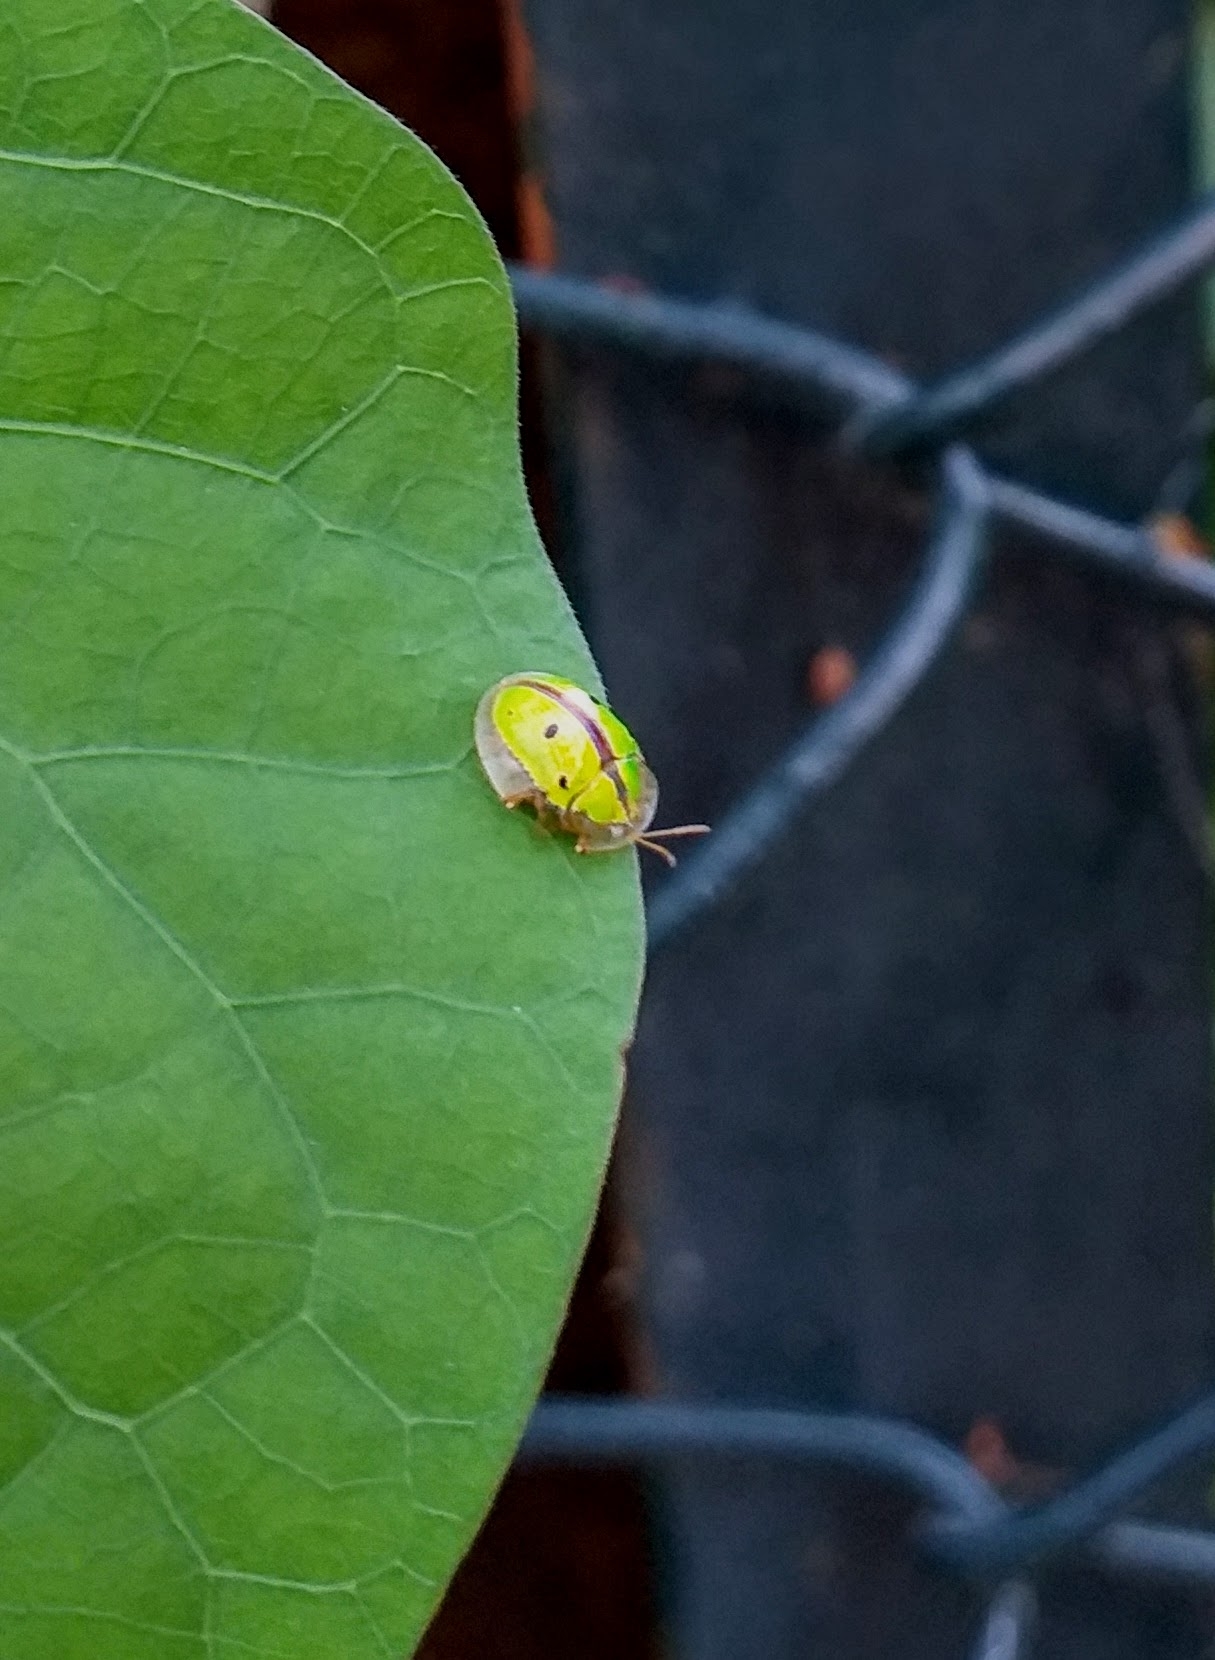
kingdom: Animalia
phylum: Arthropoda
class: Insecta
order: Coleoptera
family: Chrysomelidae
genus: Chiridopsis
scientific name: Chiridopsis bipunctata
